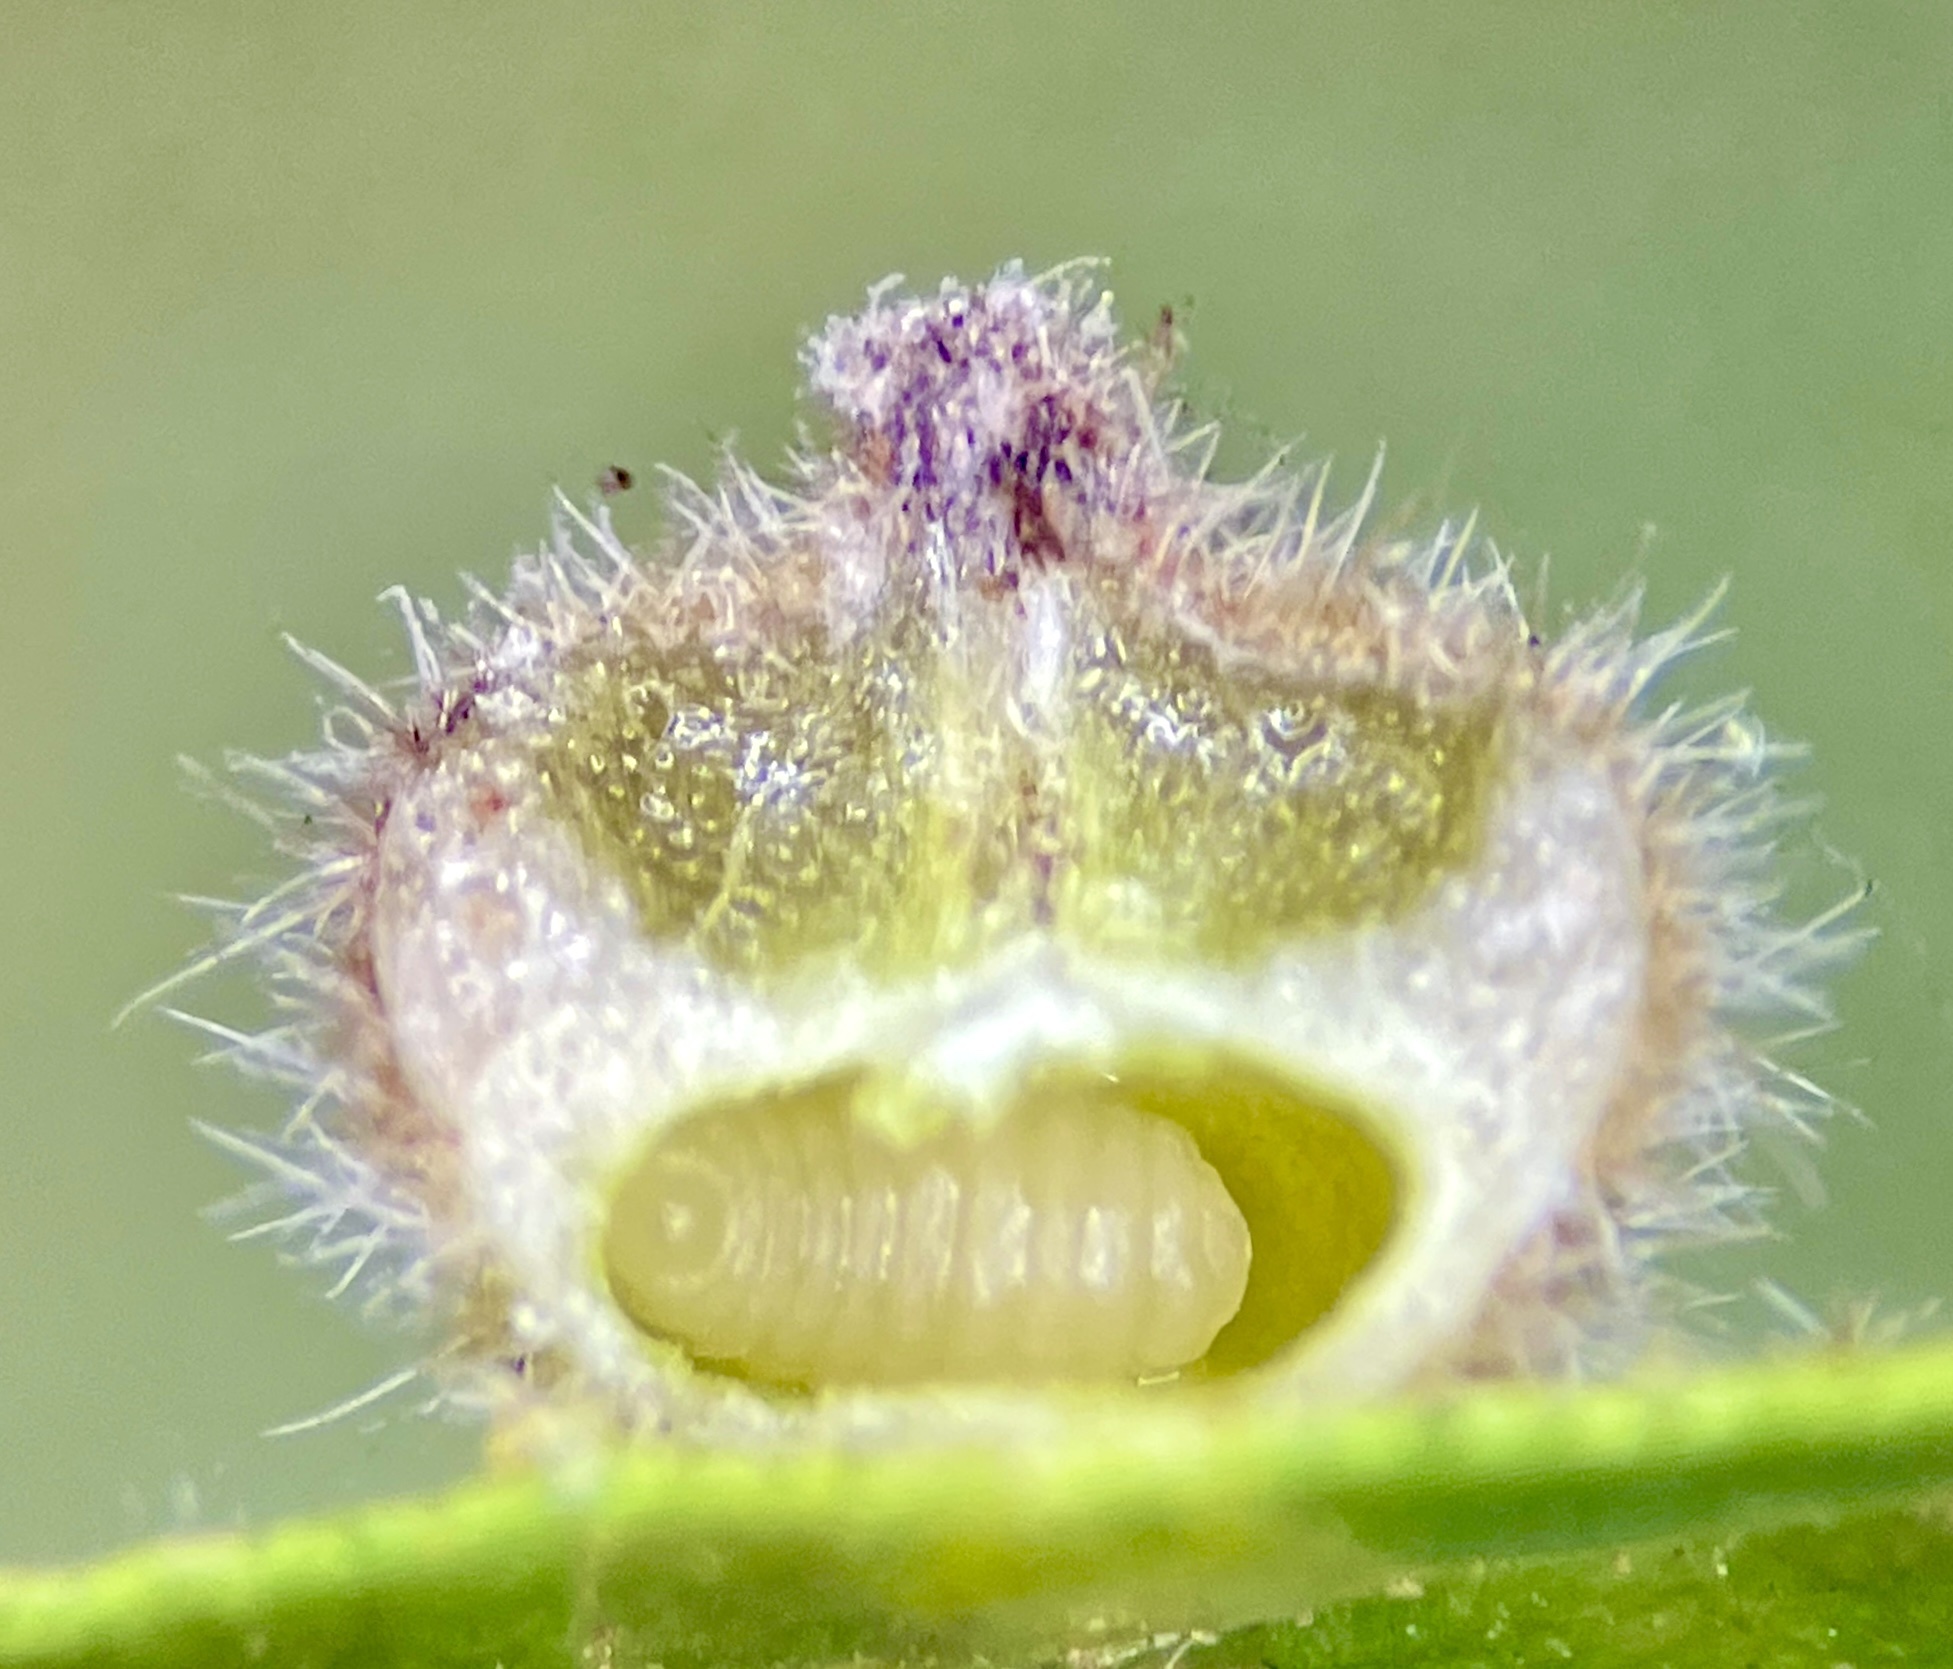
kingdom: Animalia
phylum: Arthropoda
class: Insecta
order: Diptera
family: Cecidomyiidae
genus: Caryomyia
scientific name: Caryomyia turbinata
